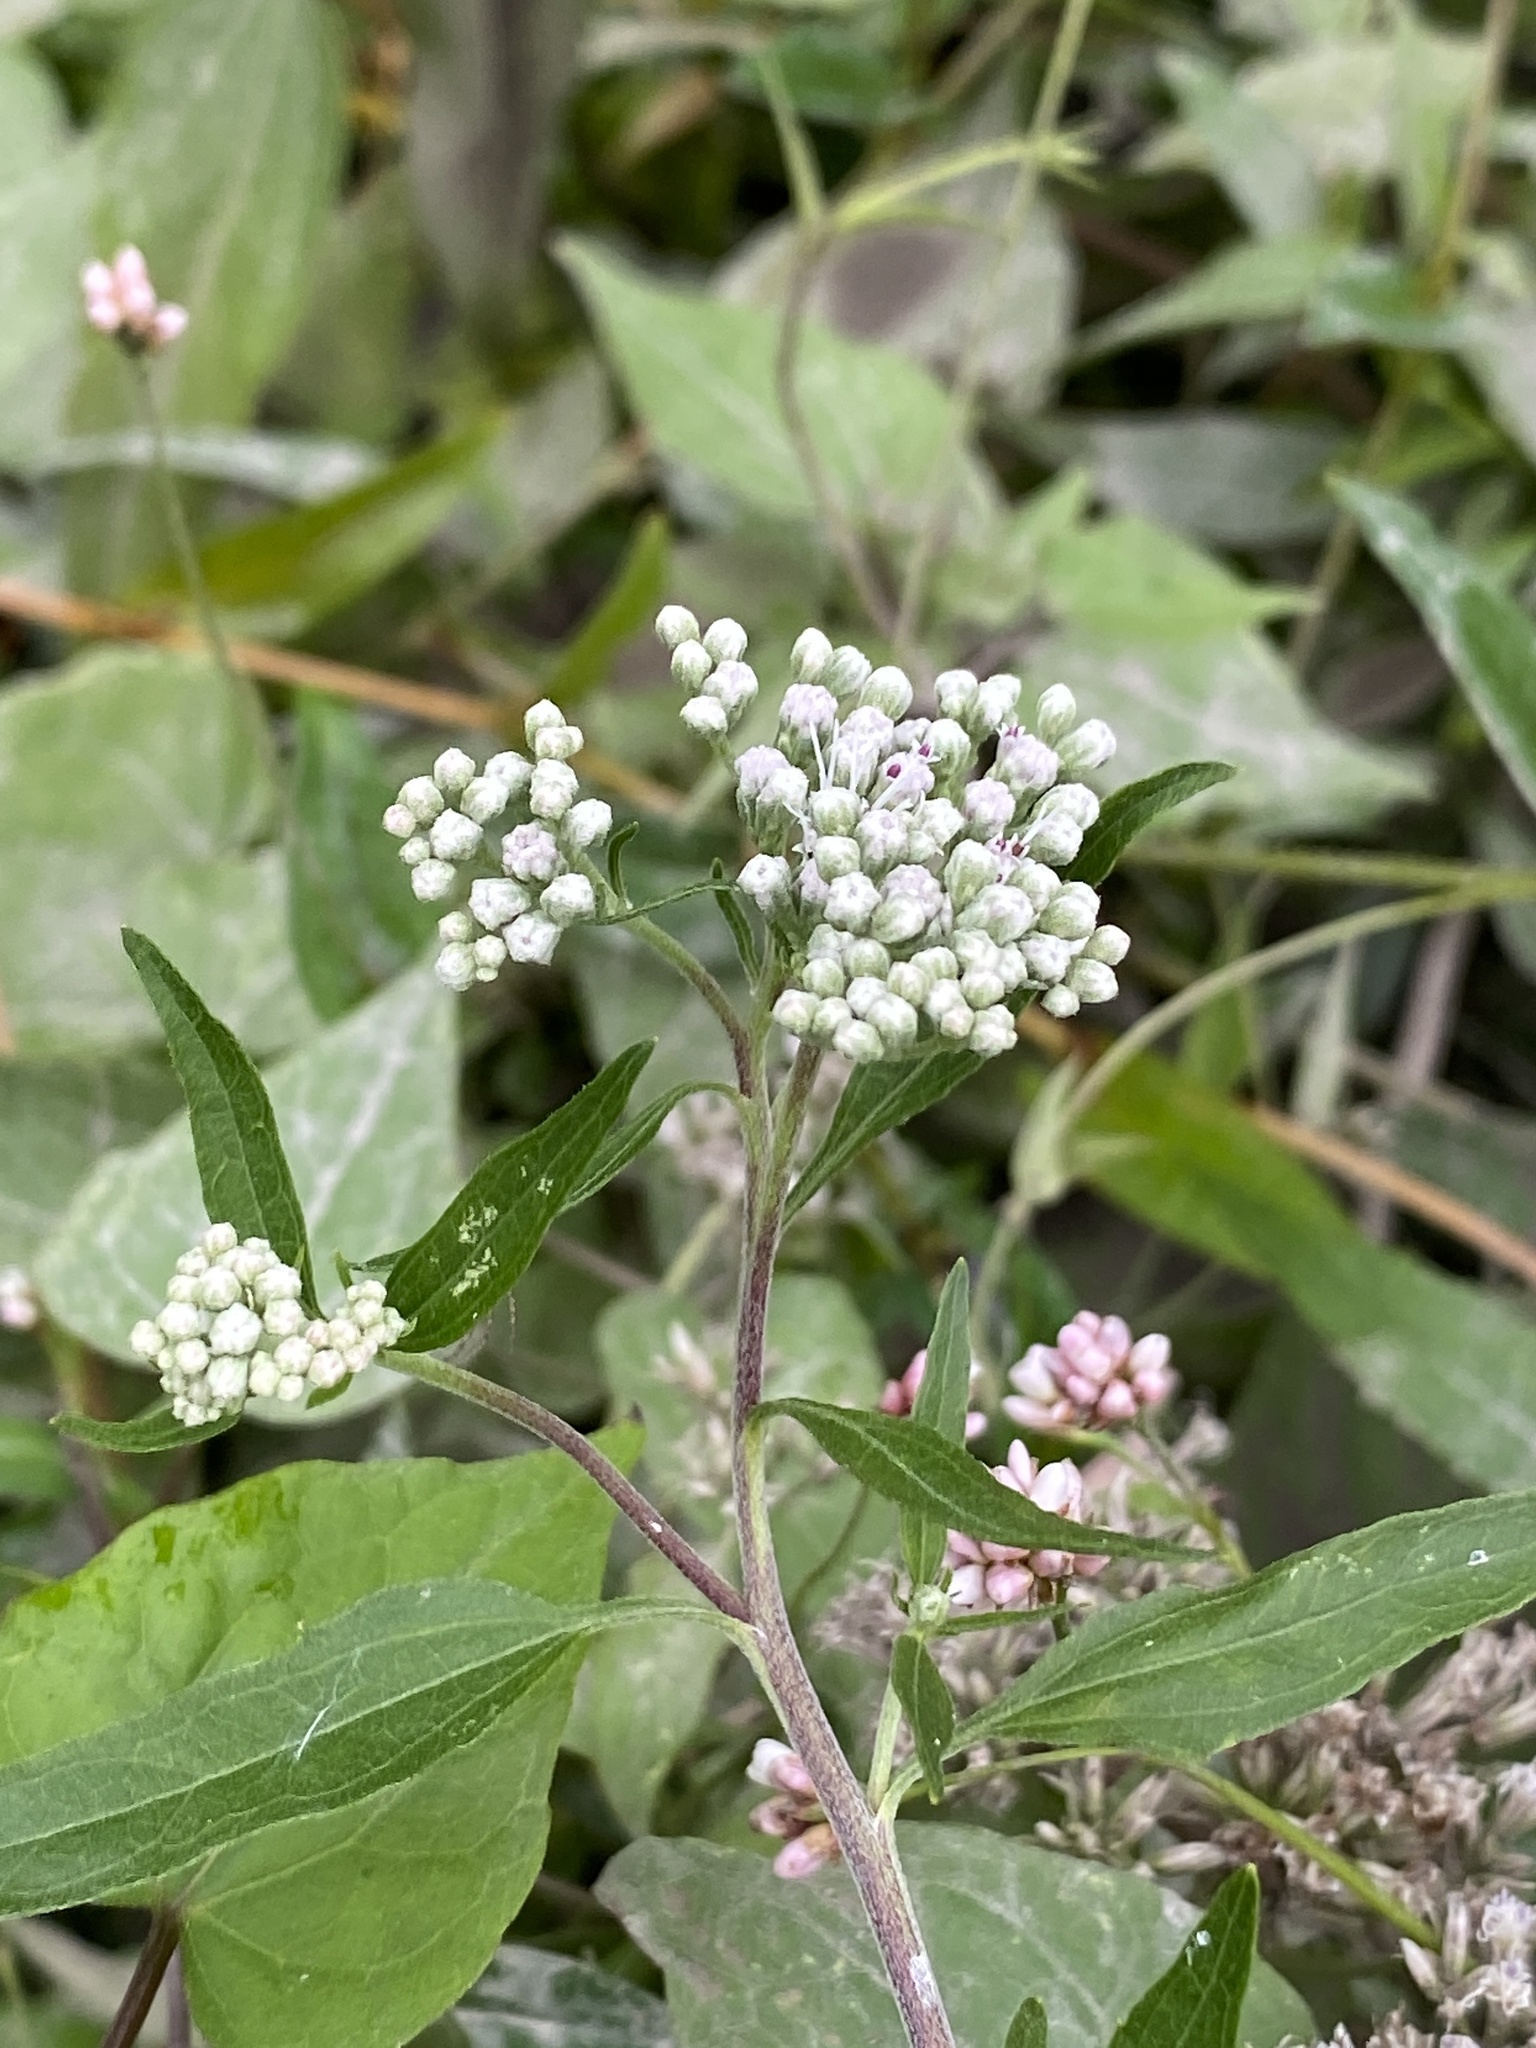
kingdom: Plantae
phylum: Tracheophyta
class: Magnoliopsida
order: Asterales
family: Asteraceae
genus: Mikania
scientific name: Mikania scandens
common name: Climbing hempvine
